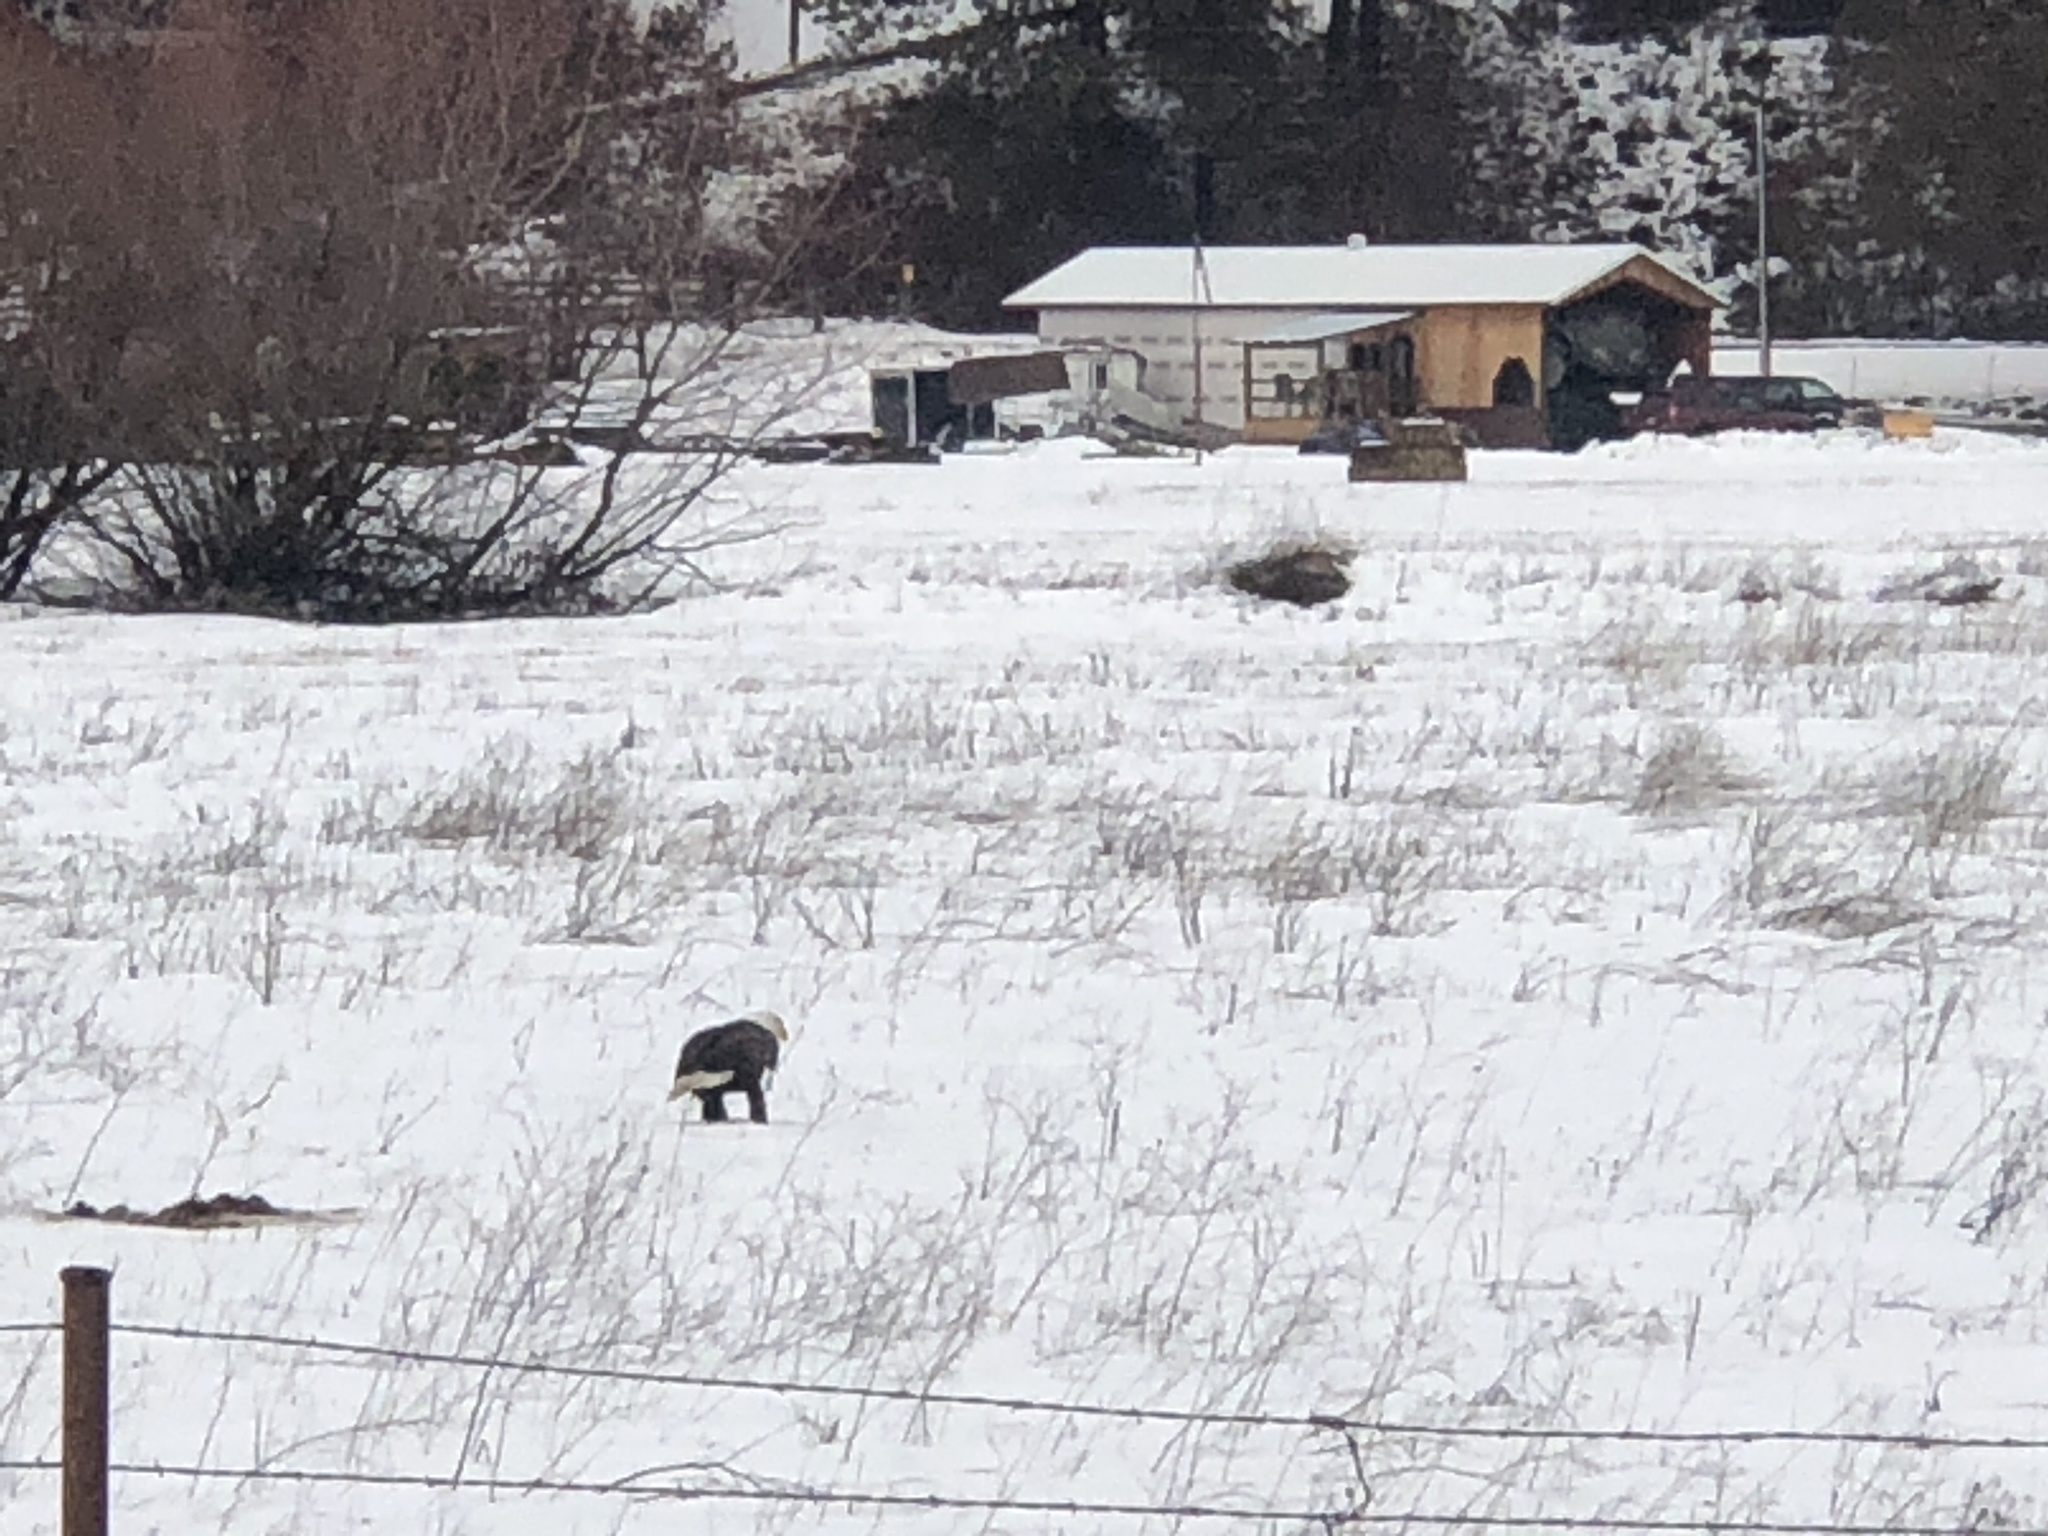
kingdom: Animalia
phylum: Chordata
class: Aves
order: Accipitriformes
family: Accipitridae
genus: Haliaeetus
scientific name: Haliaeetus leucocephalus
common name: Bald eagle
